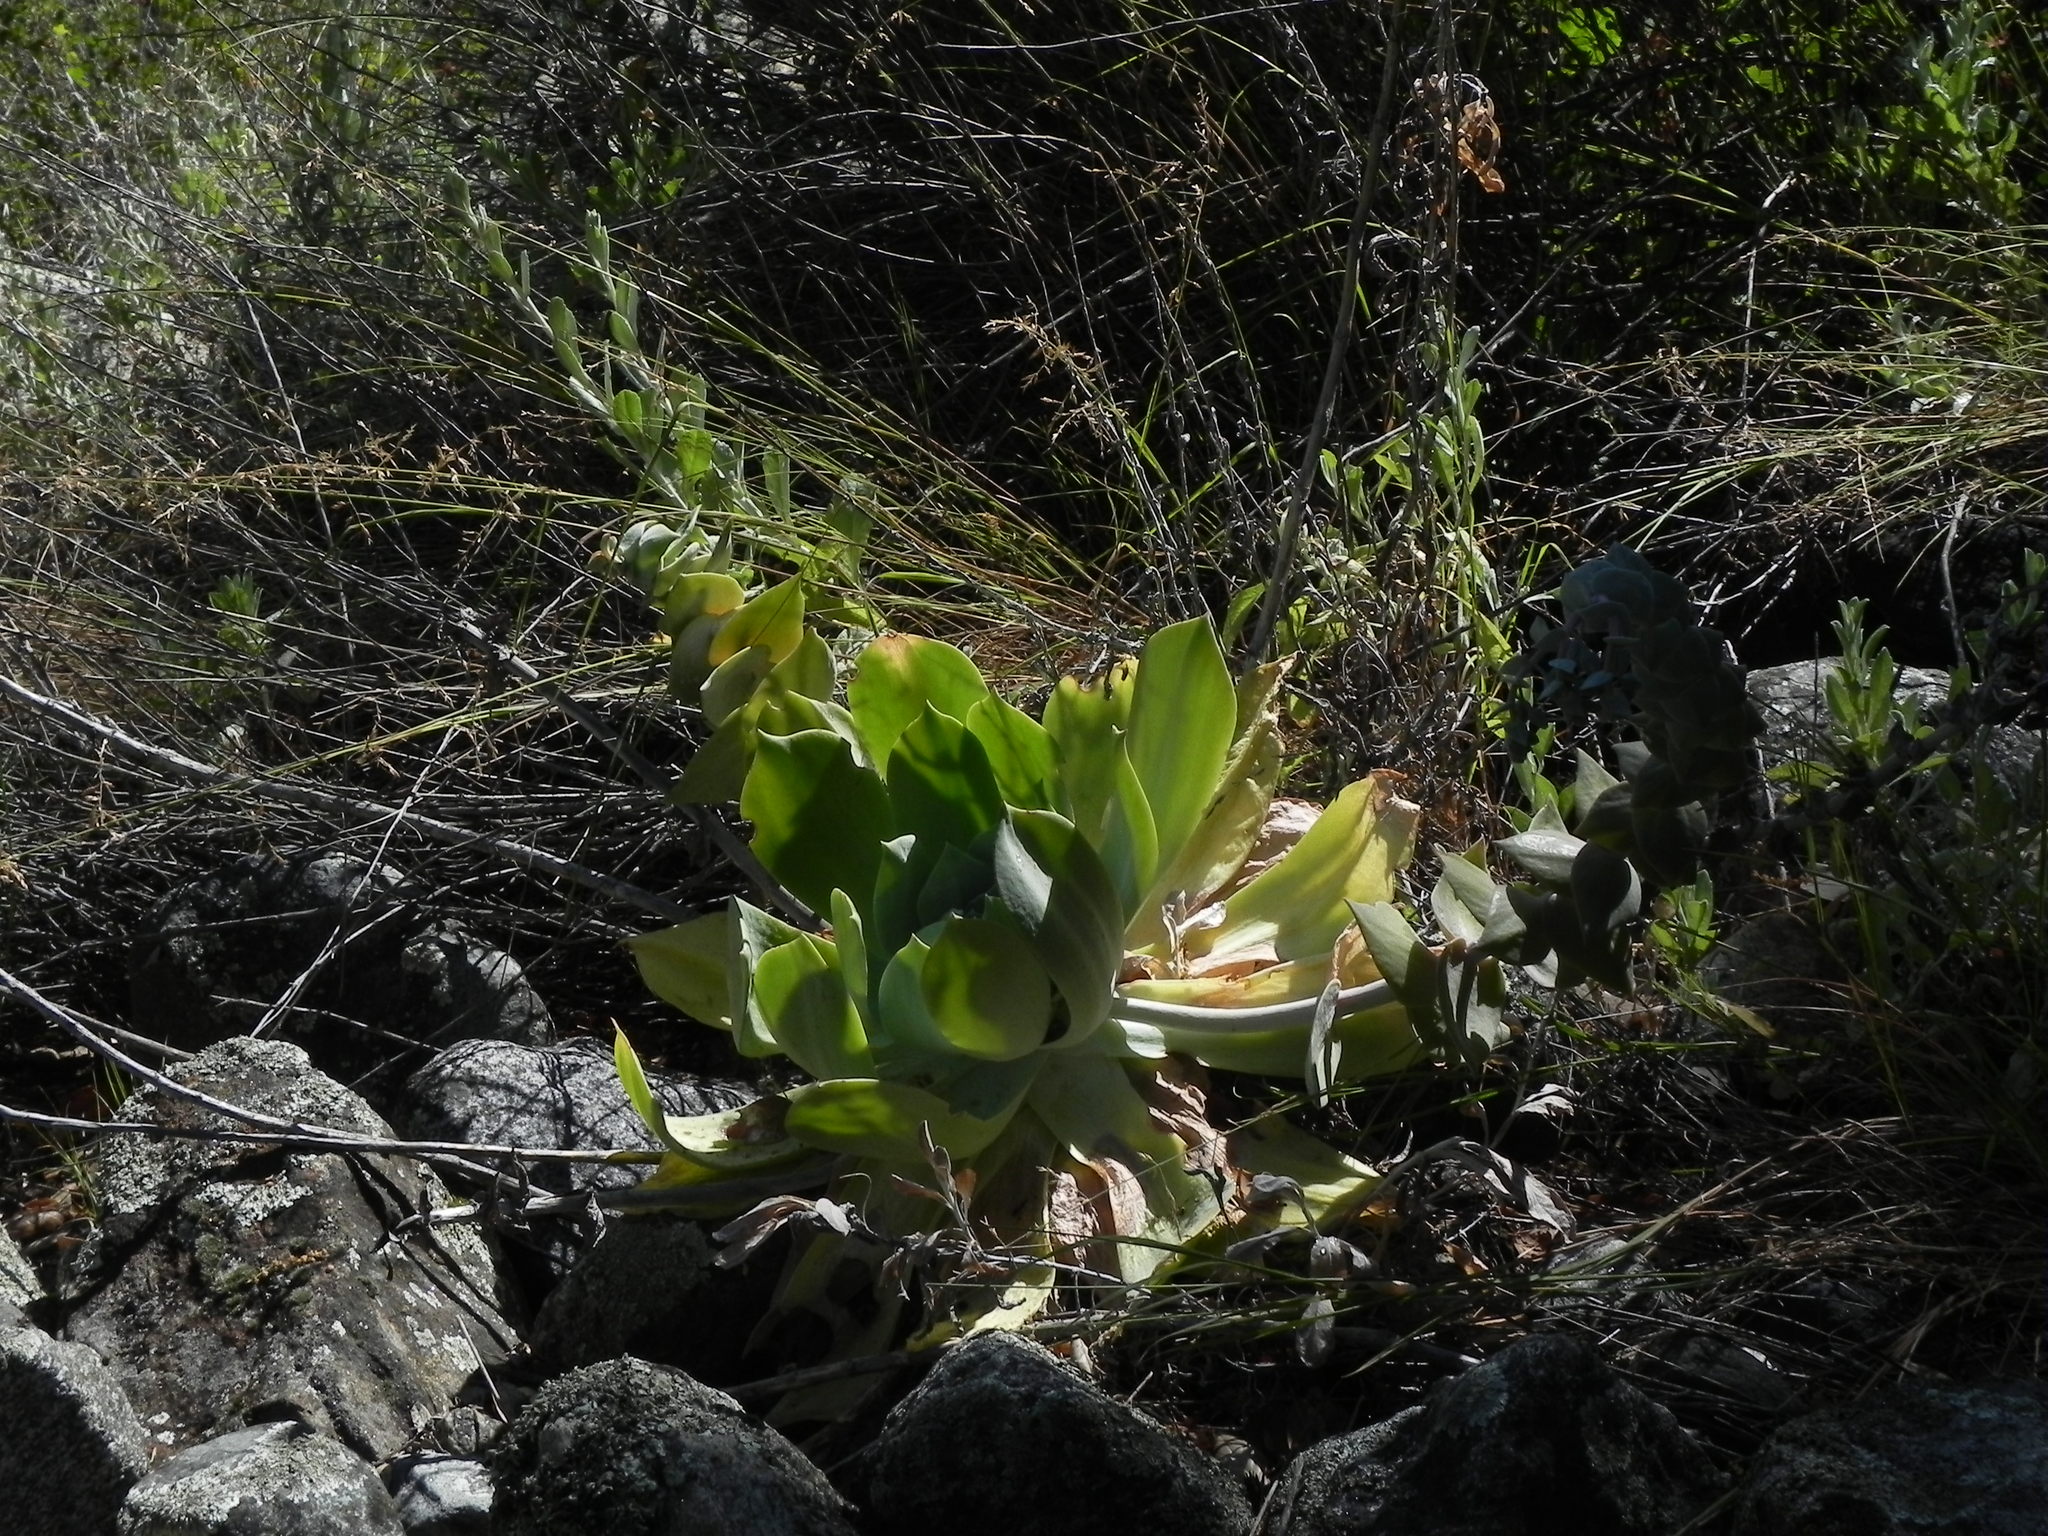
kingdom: Plantae
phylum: Tracheophyta
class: Magnoliopsida
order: Saxifragales
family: Crassulaceae
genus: Dudleya
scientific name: Dudleya pulverulenta
